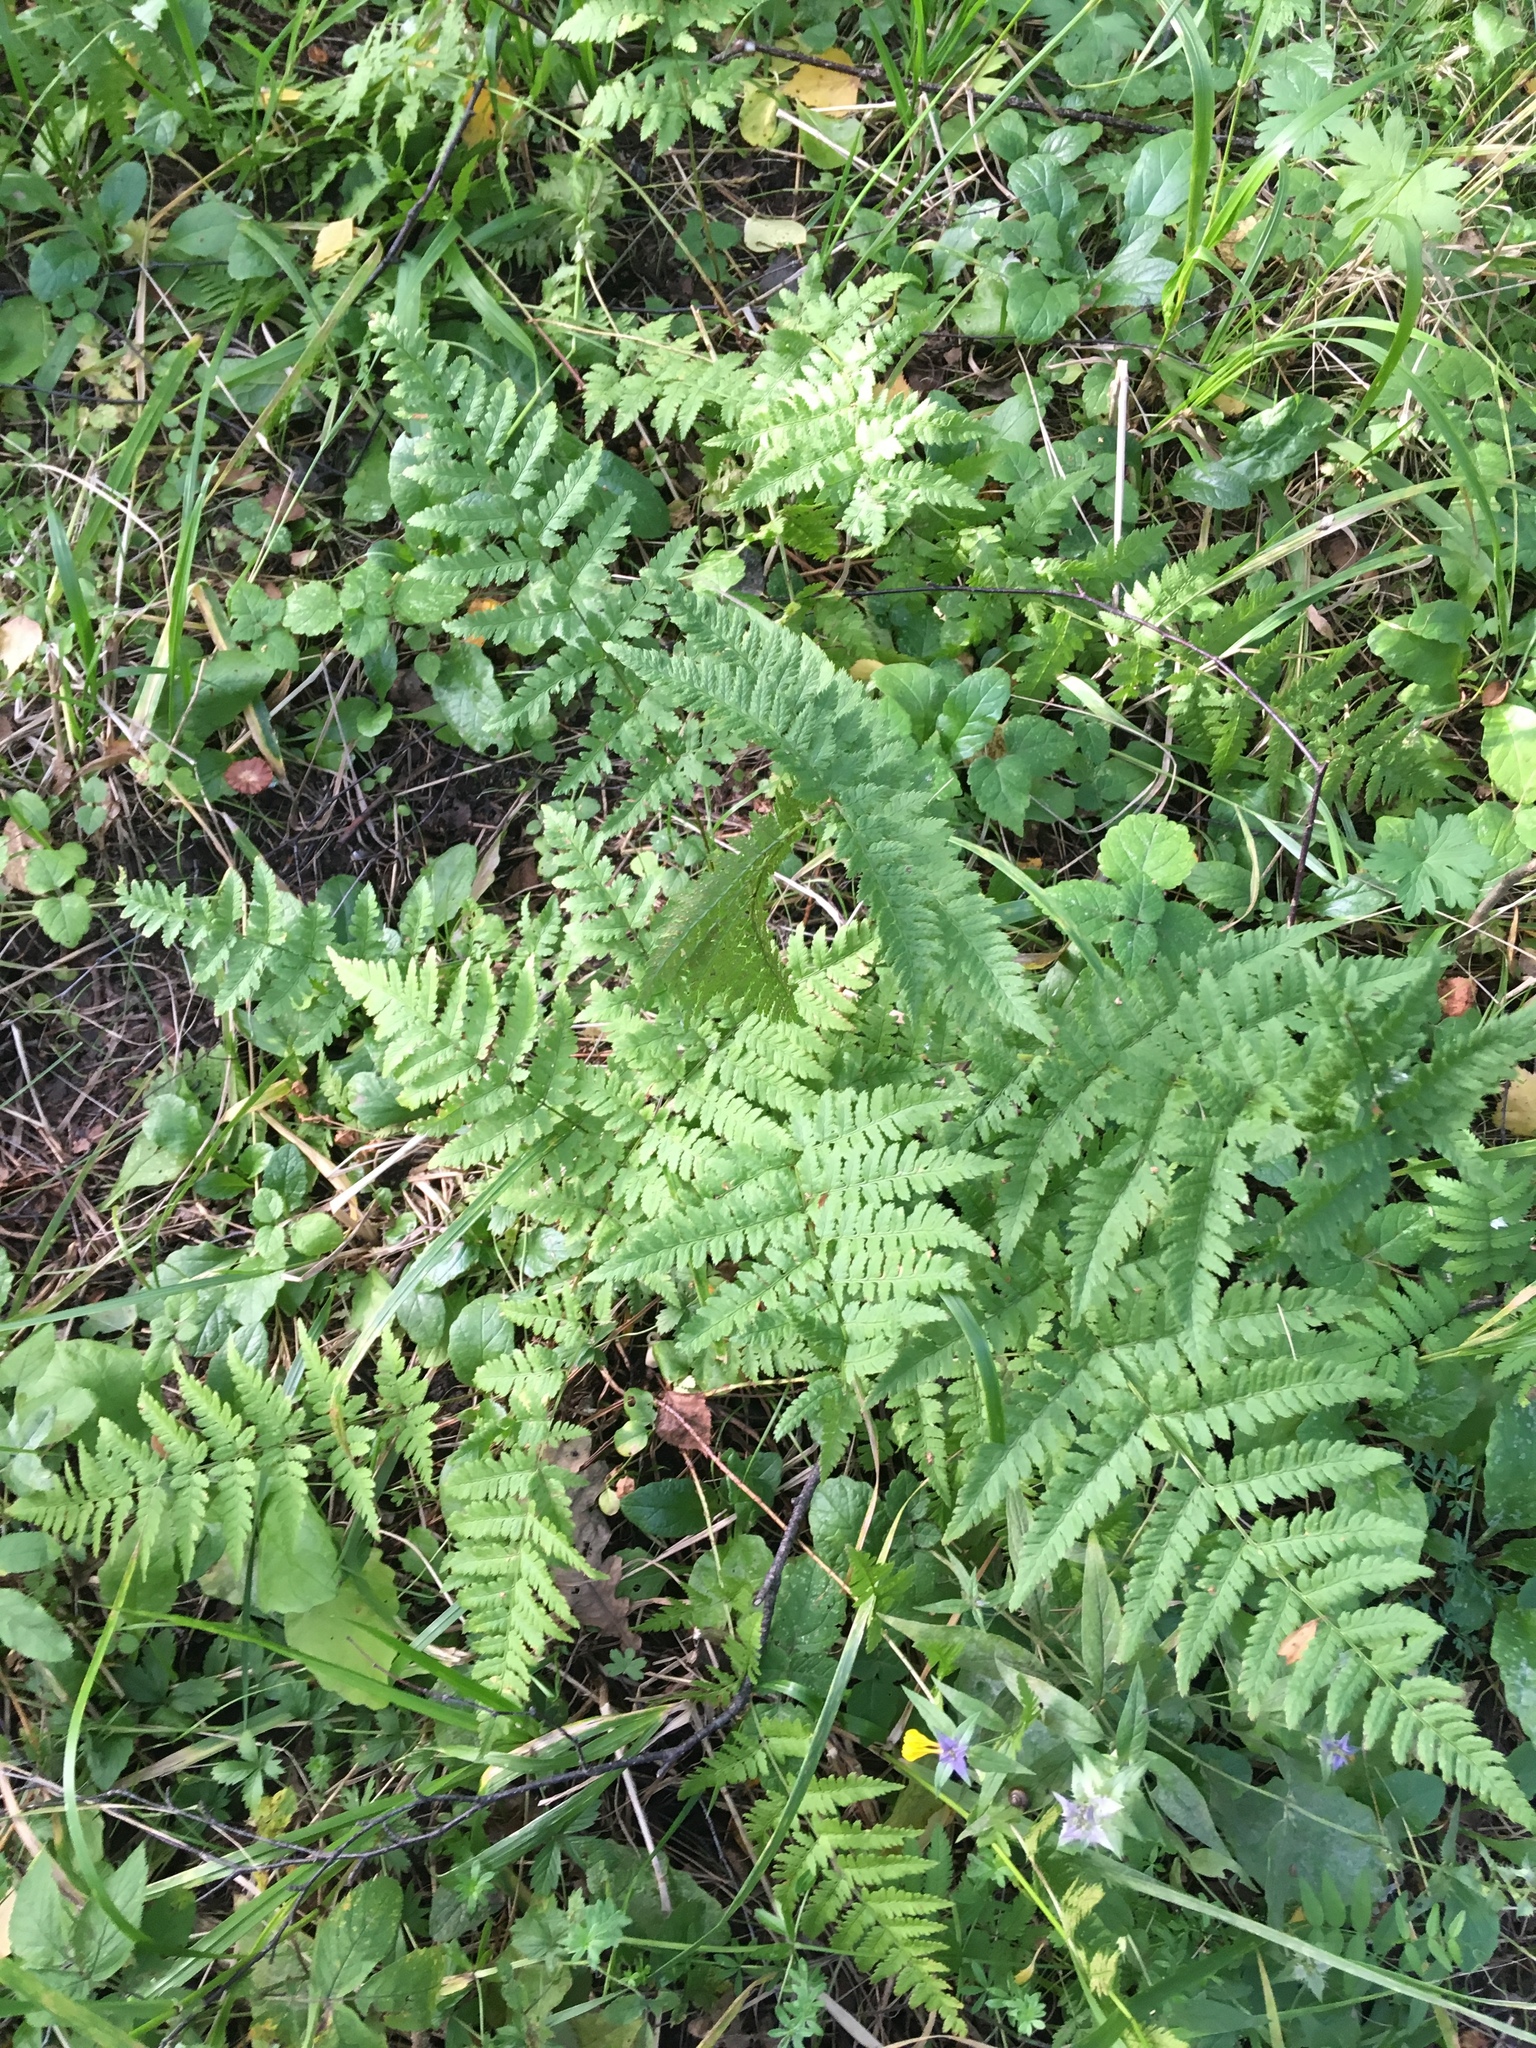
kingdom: Plantae
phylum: Tracheophyta
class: Polypodiopsida
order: Polypodiales
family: Dryopteridaceae
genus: Dryopteris
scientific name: Dryopteris carthusiana
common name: Narrow buckler-fern
